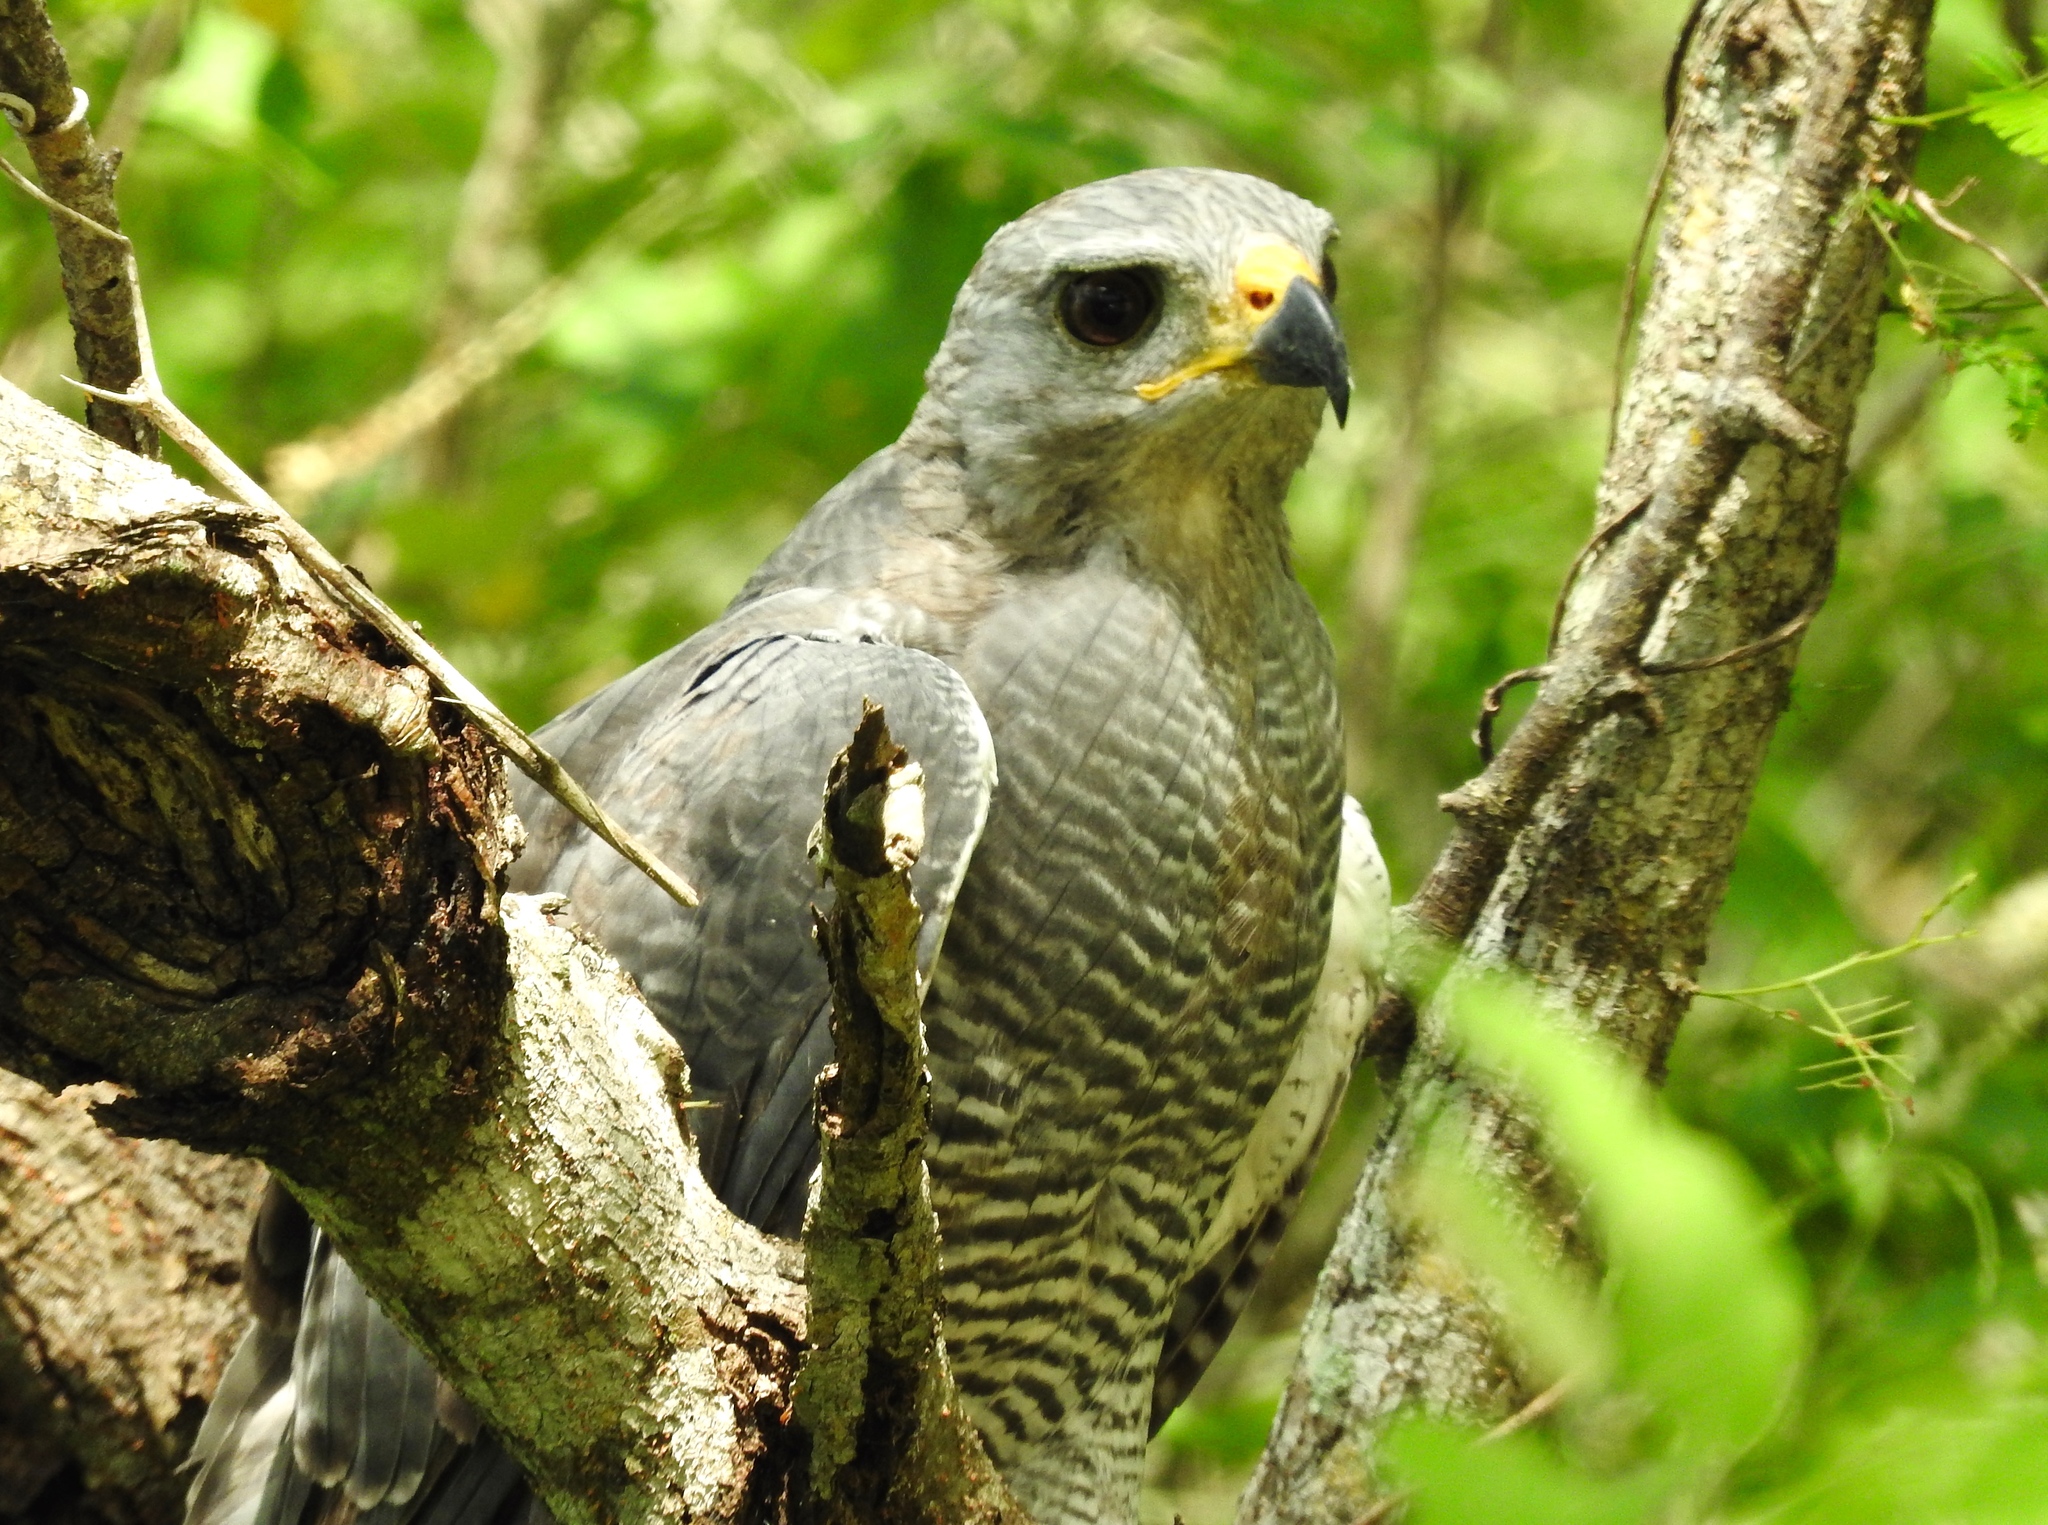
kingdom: Animalia
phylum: Chordata
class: Aves
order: Accipitriformes
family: Accipitridae
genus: Buteo
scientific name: Buteo nitidus
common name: Grey-lined hawk
